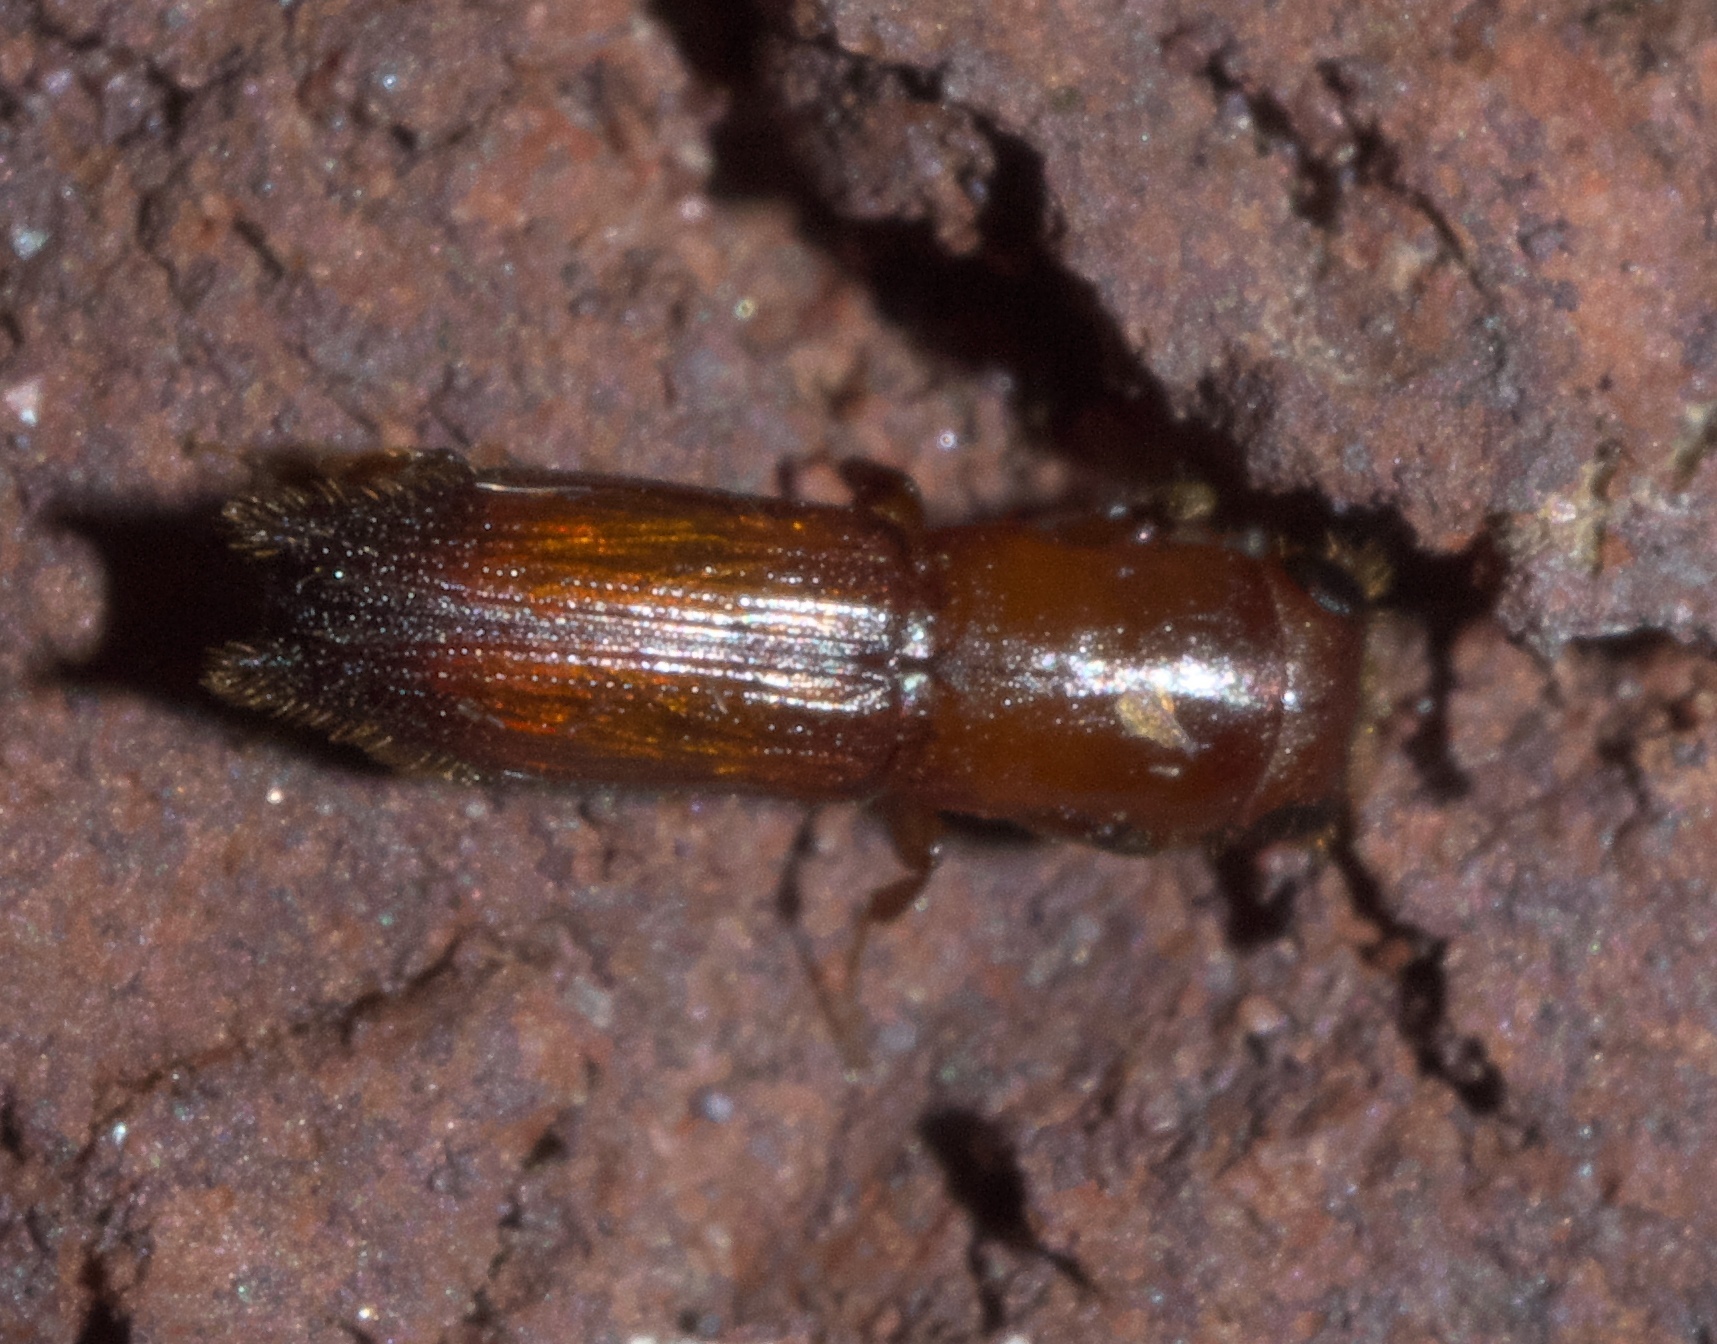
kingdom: Animalia
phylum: Arthropoda
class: Insecta
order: Coleoptera
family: Curculionidae
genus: Euplatypus
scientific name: Euplatypus compositus
